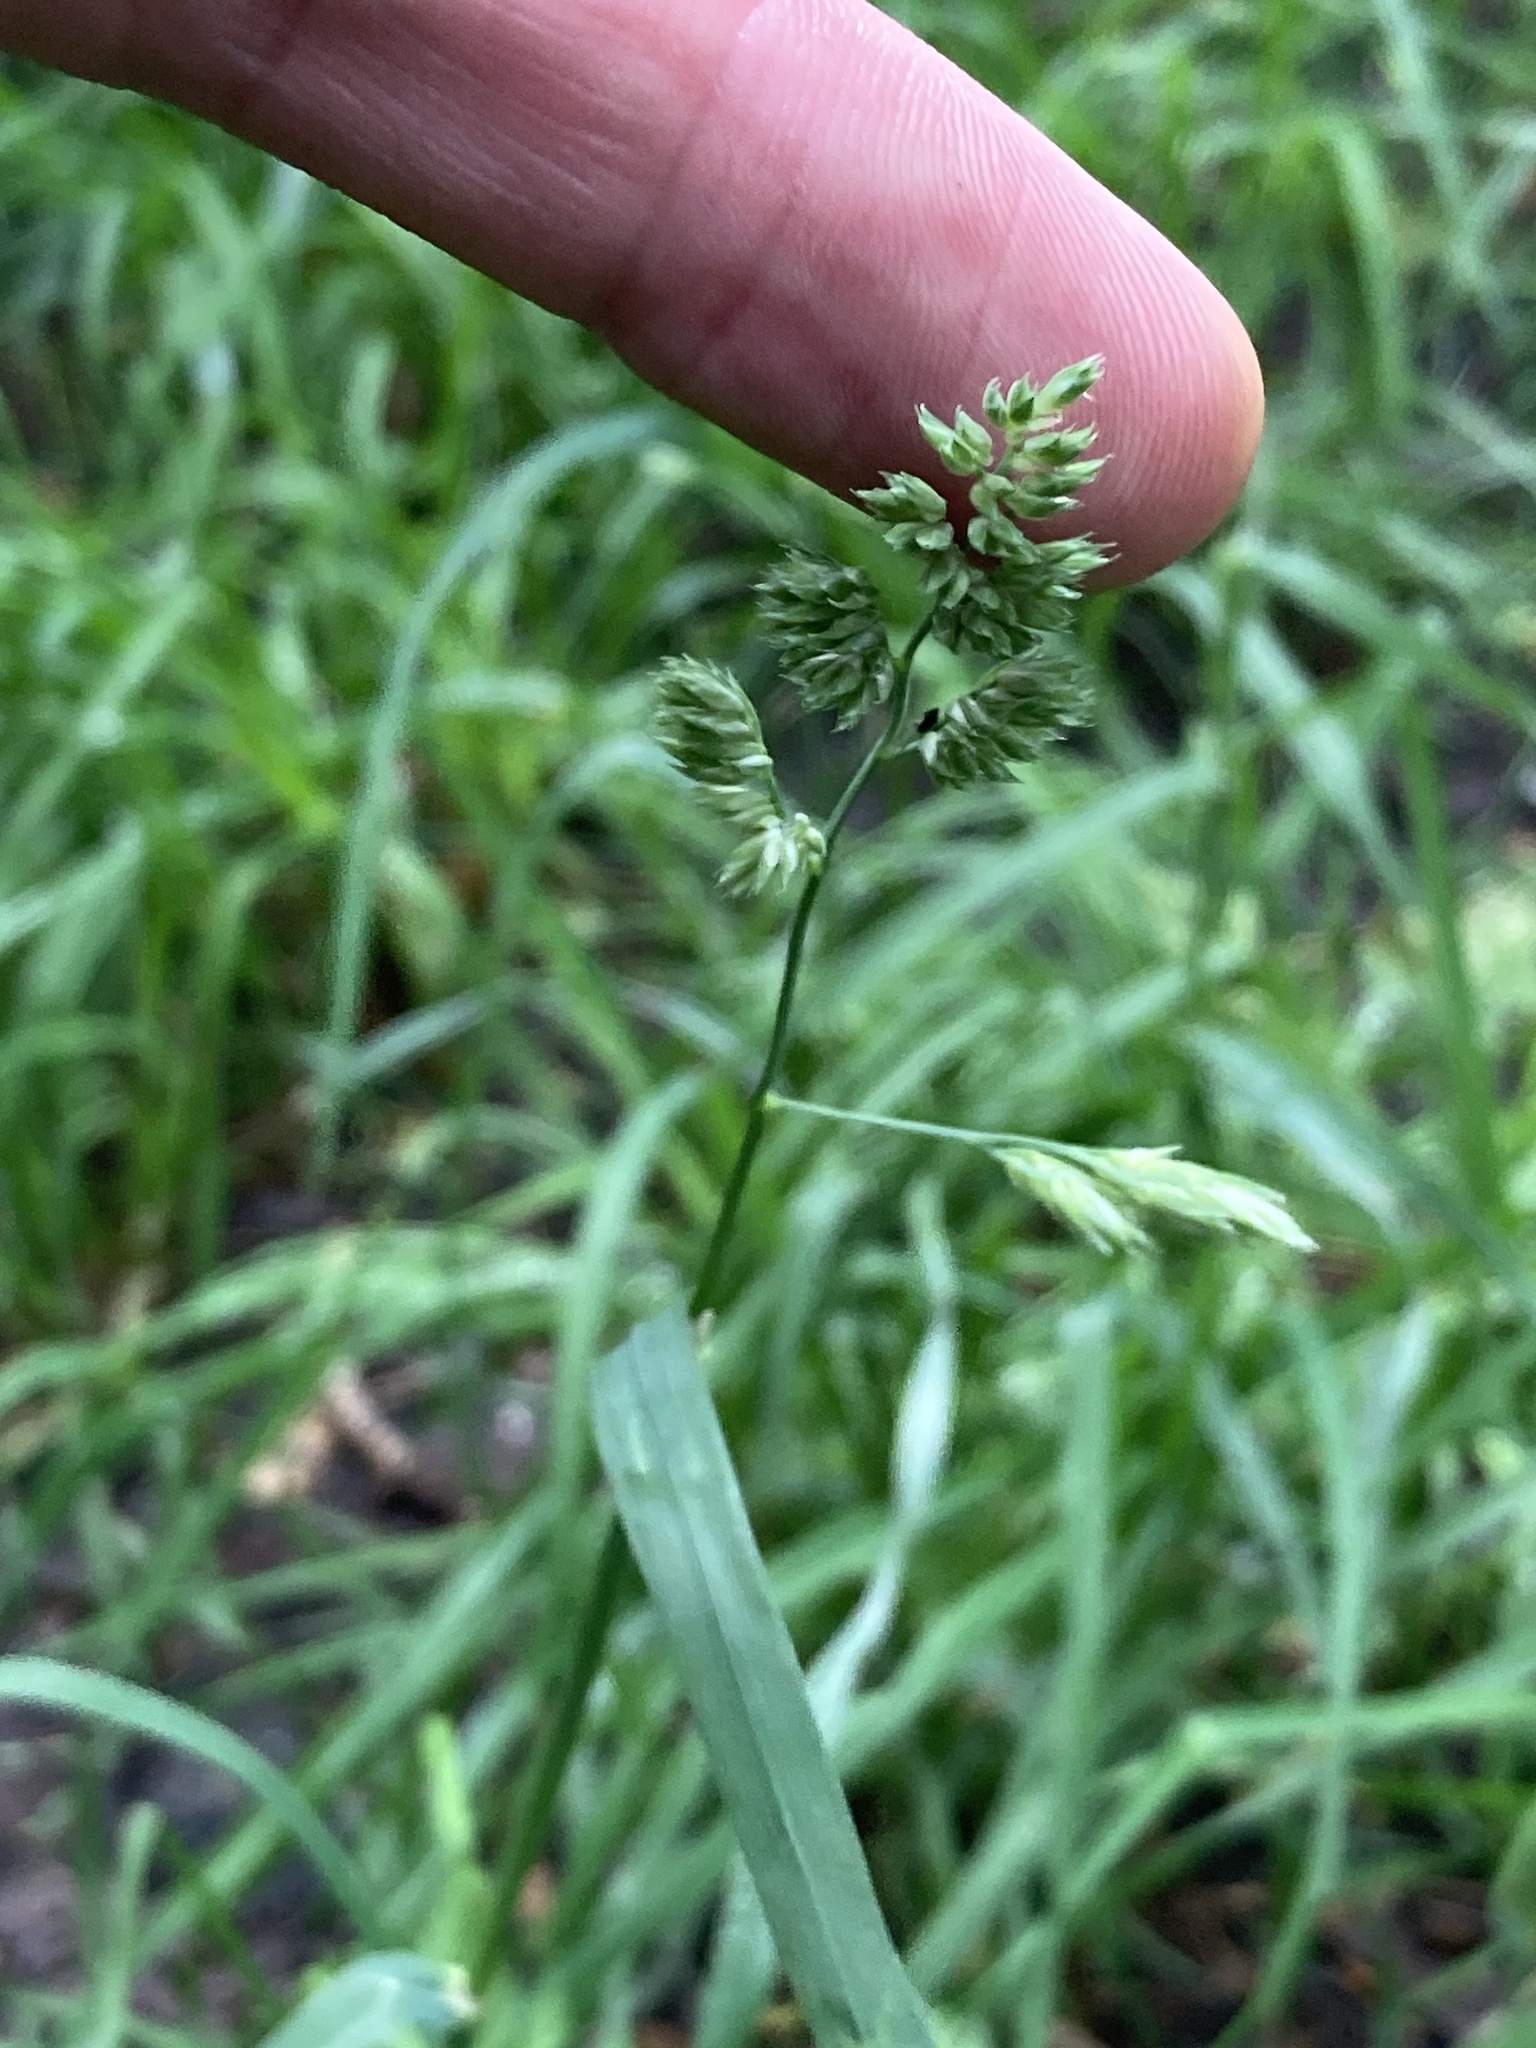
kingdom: Plantae
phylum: Tracheophyta
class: Liliopsida
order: Poales
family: Poaceae
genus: Dactylis
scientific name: Dactylis glomerata
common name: Orchardgrass
